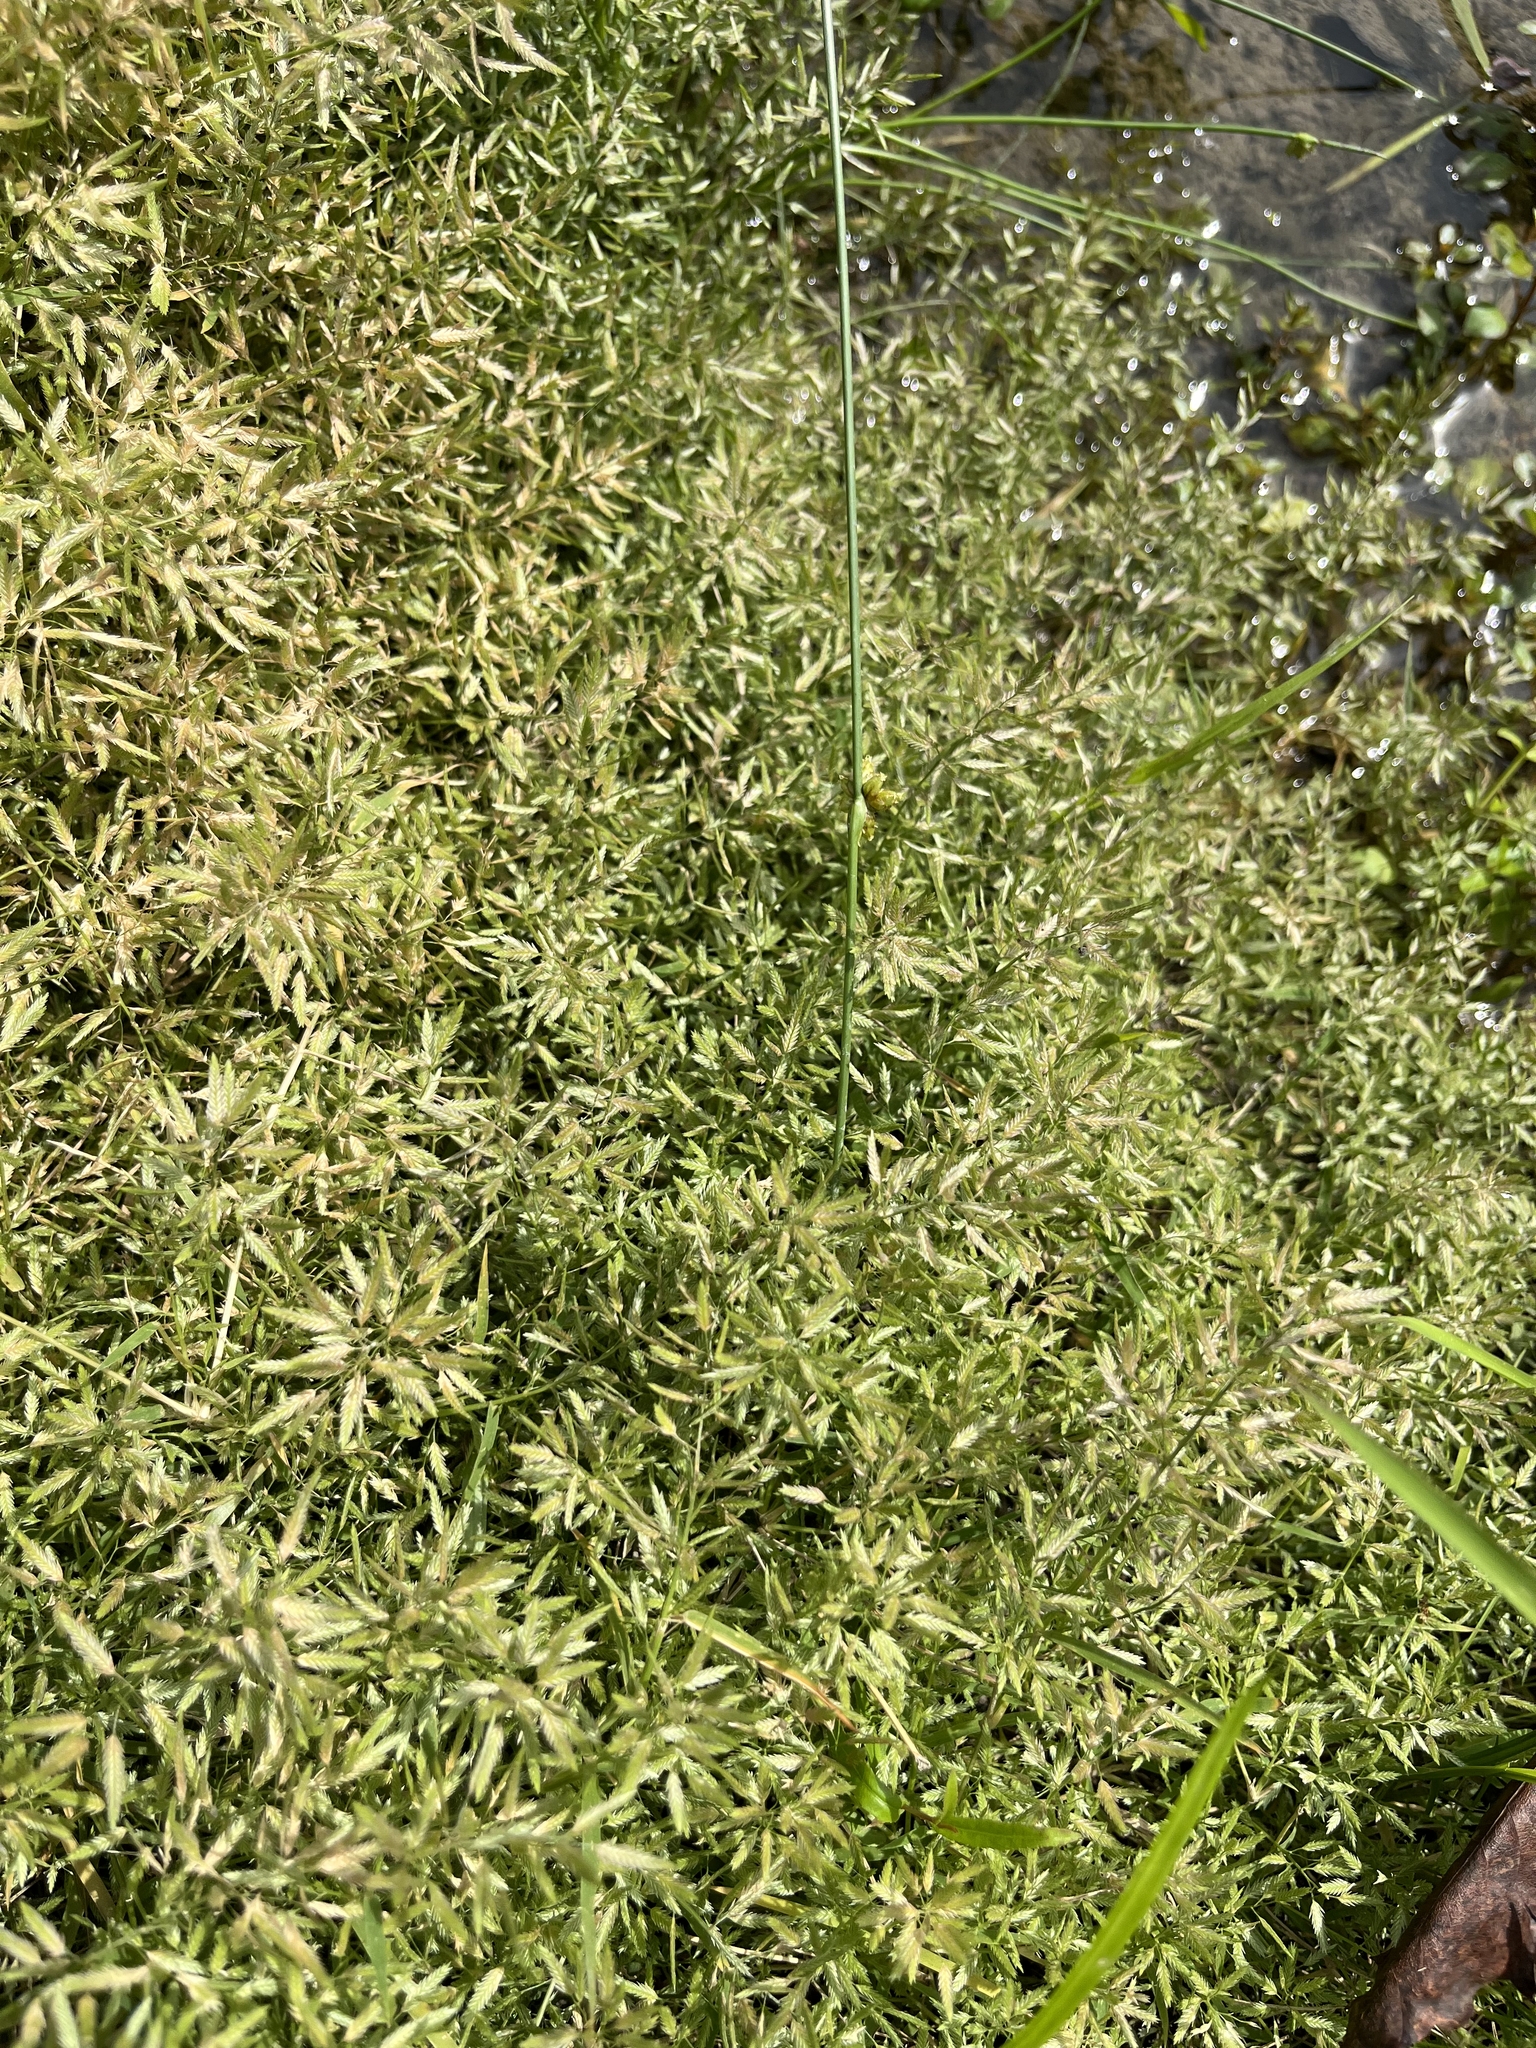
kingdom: Plantae
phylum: Tracheophyta
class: Liliopsida
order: Poales
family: Poaceae
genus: Eragrostis
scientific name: Eragrostis hypnoides
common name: Creeping love grass
